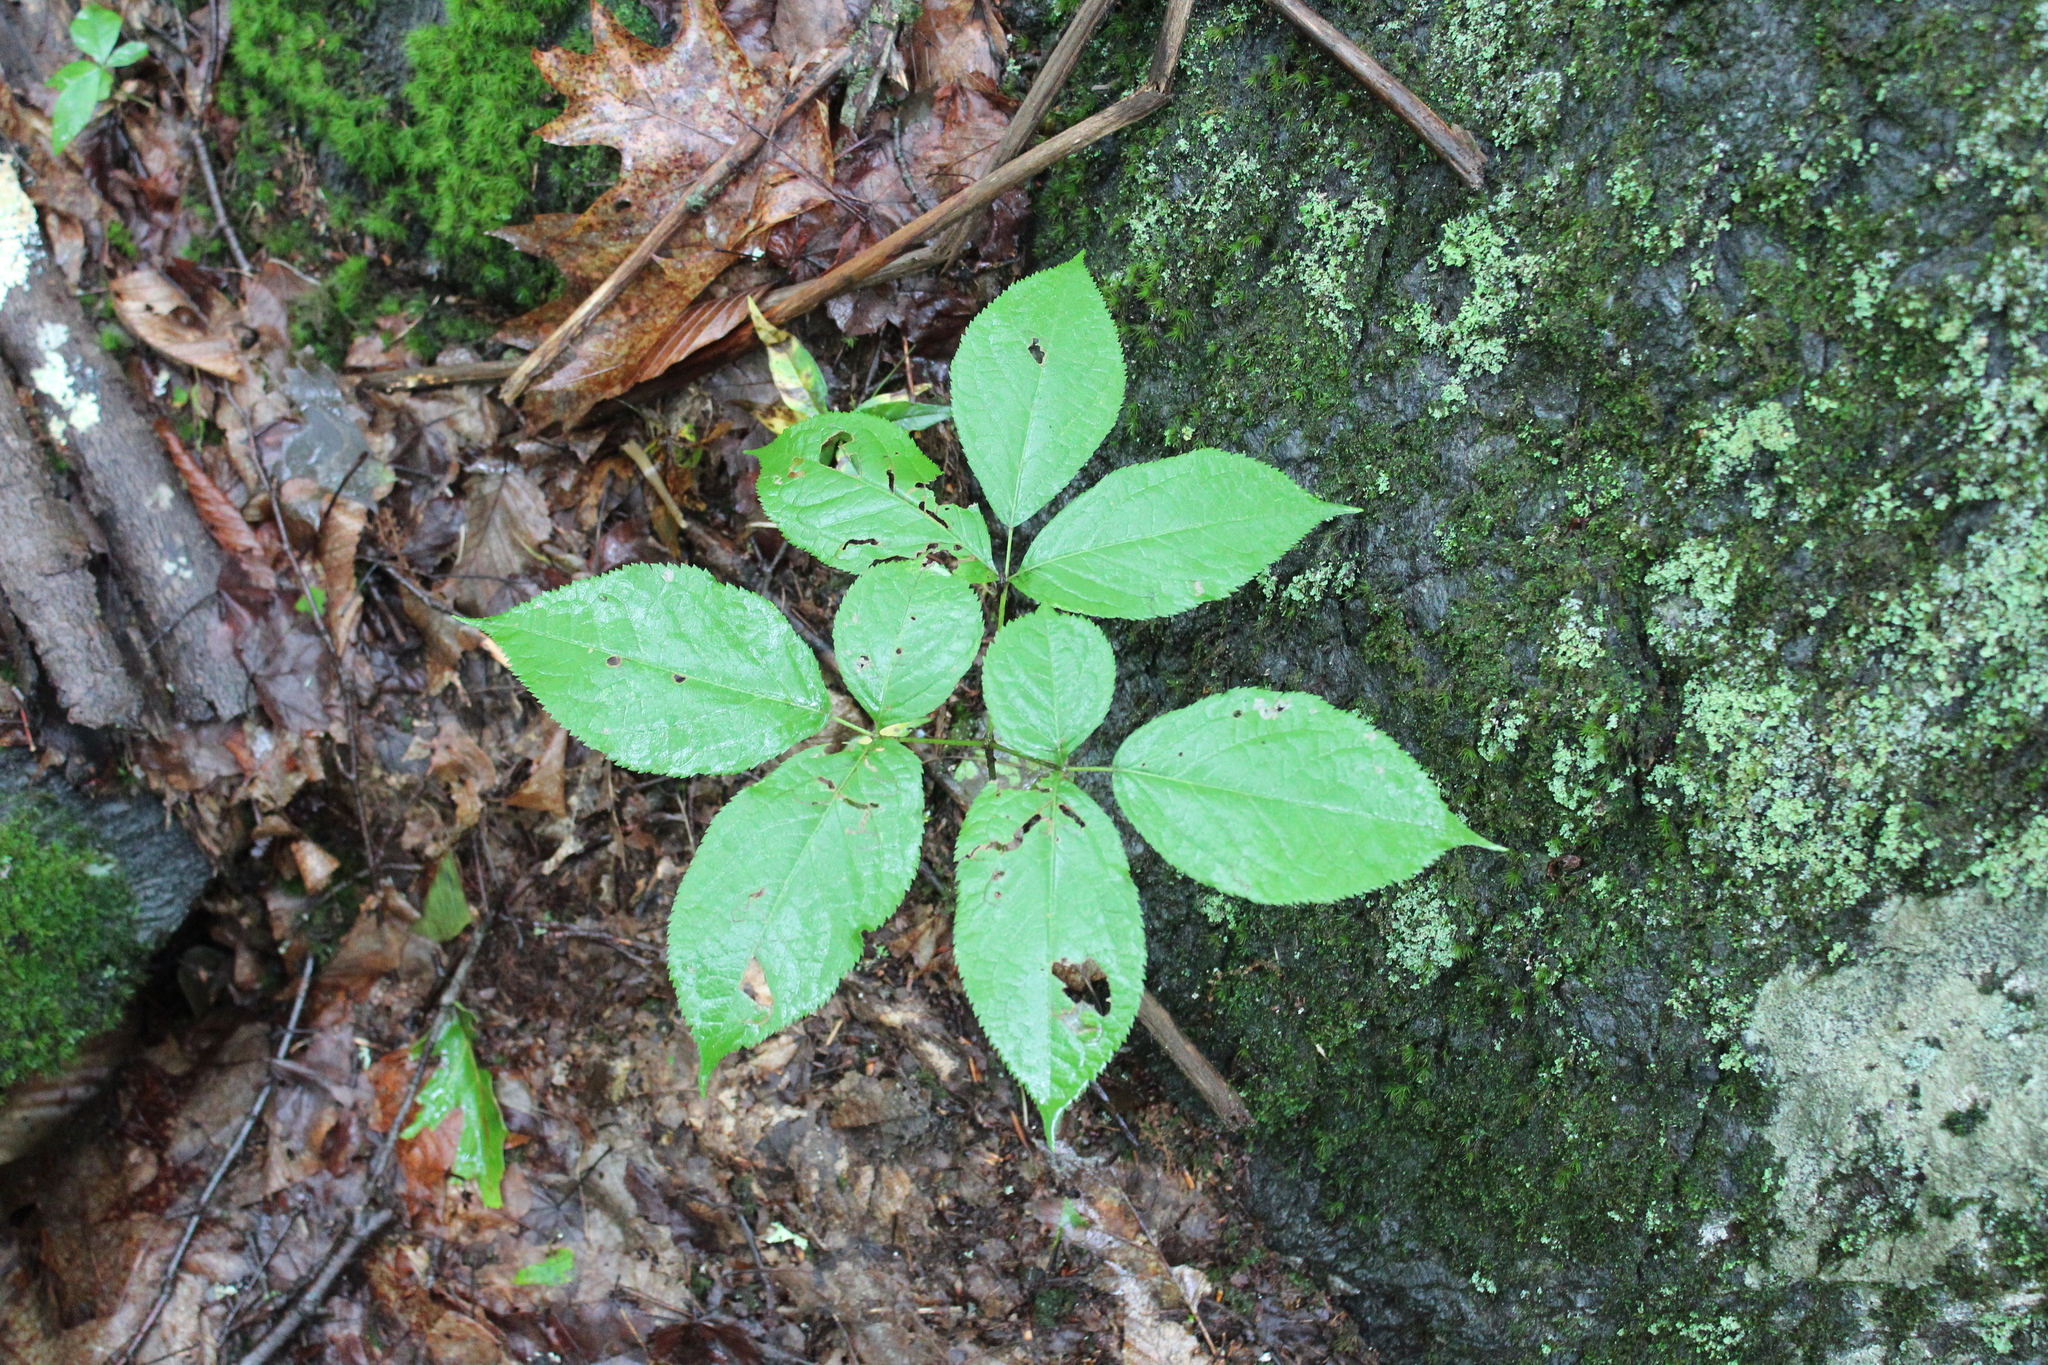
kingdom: Plantae
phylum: Tracheophyta
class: Magnoliopsida
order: Apiales
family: Araliaceae
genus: Aralia
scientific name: Aralia nudicaulis
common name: Wild sarsaparilla
